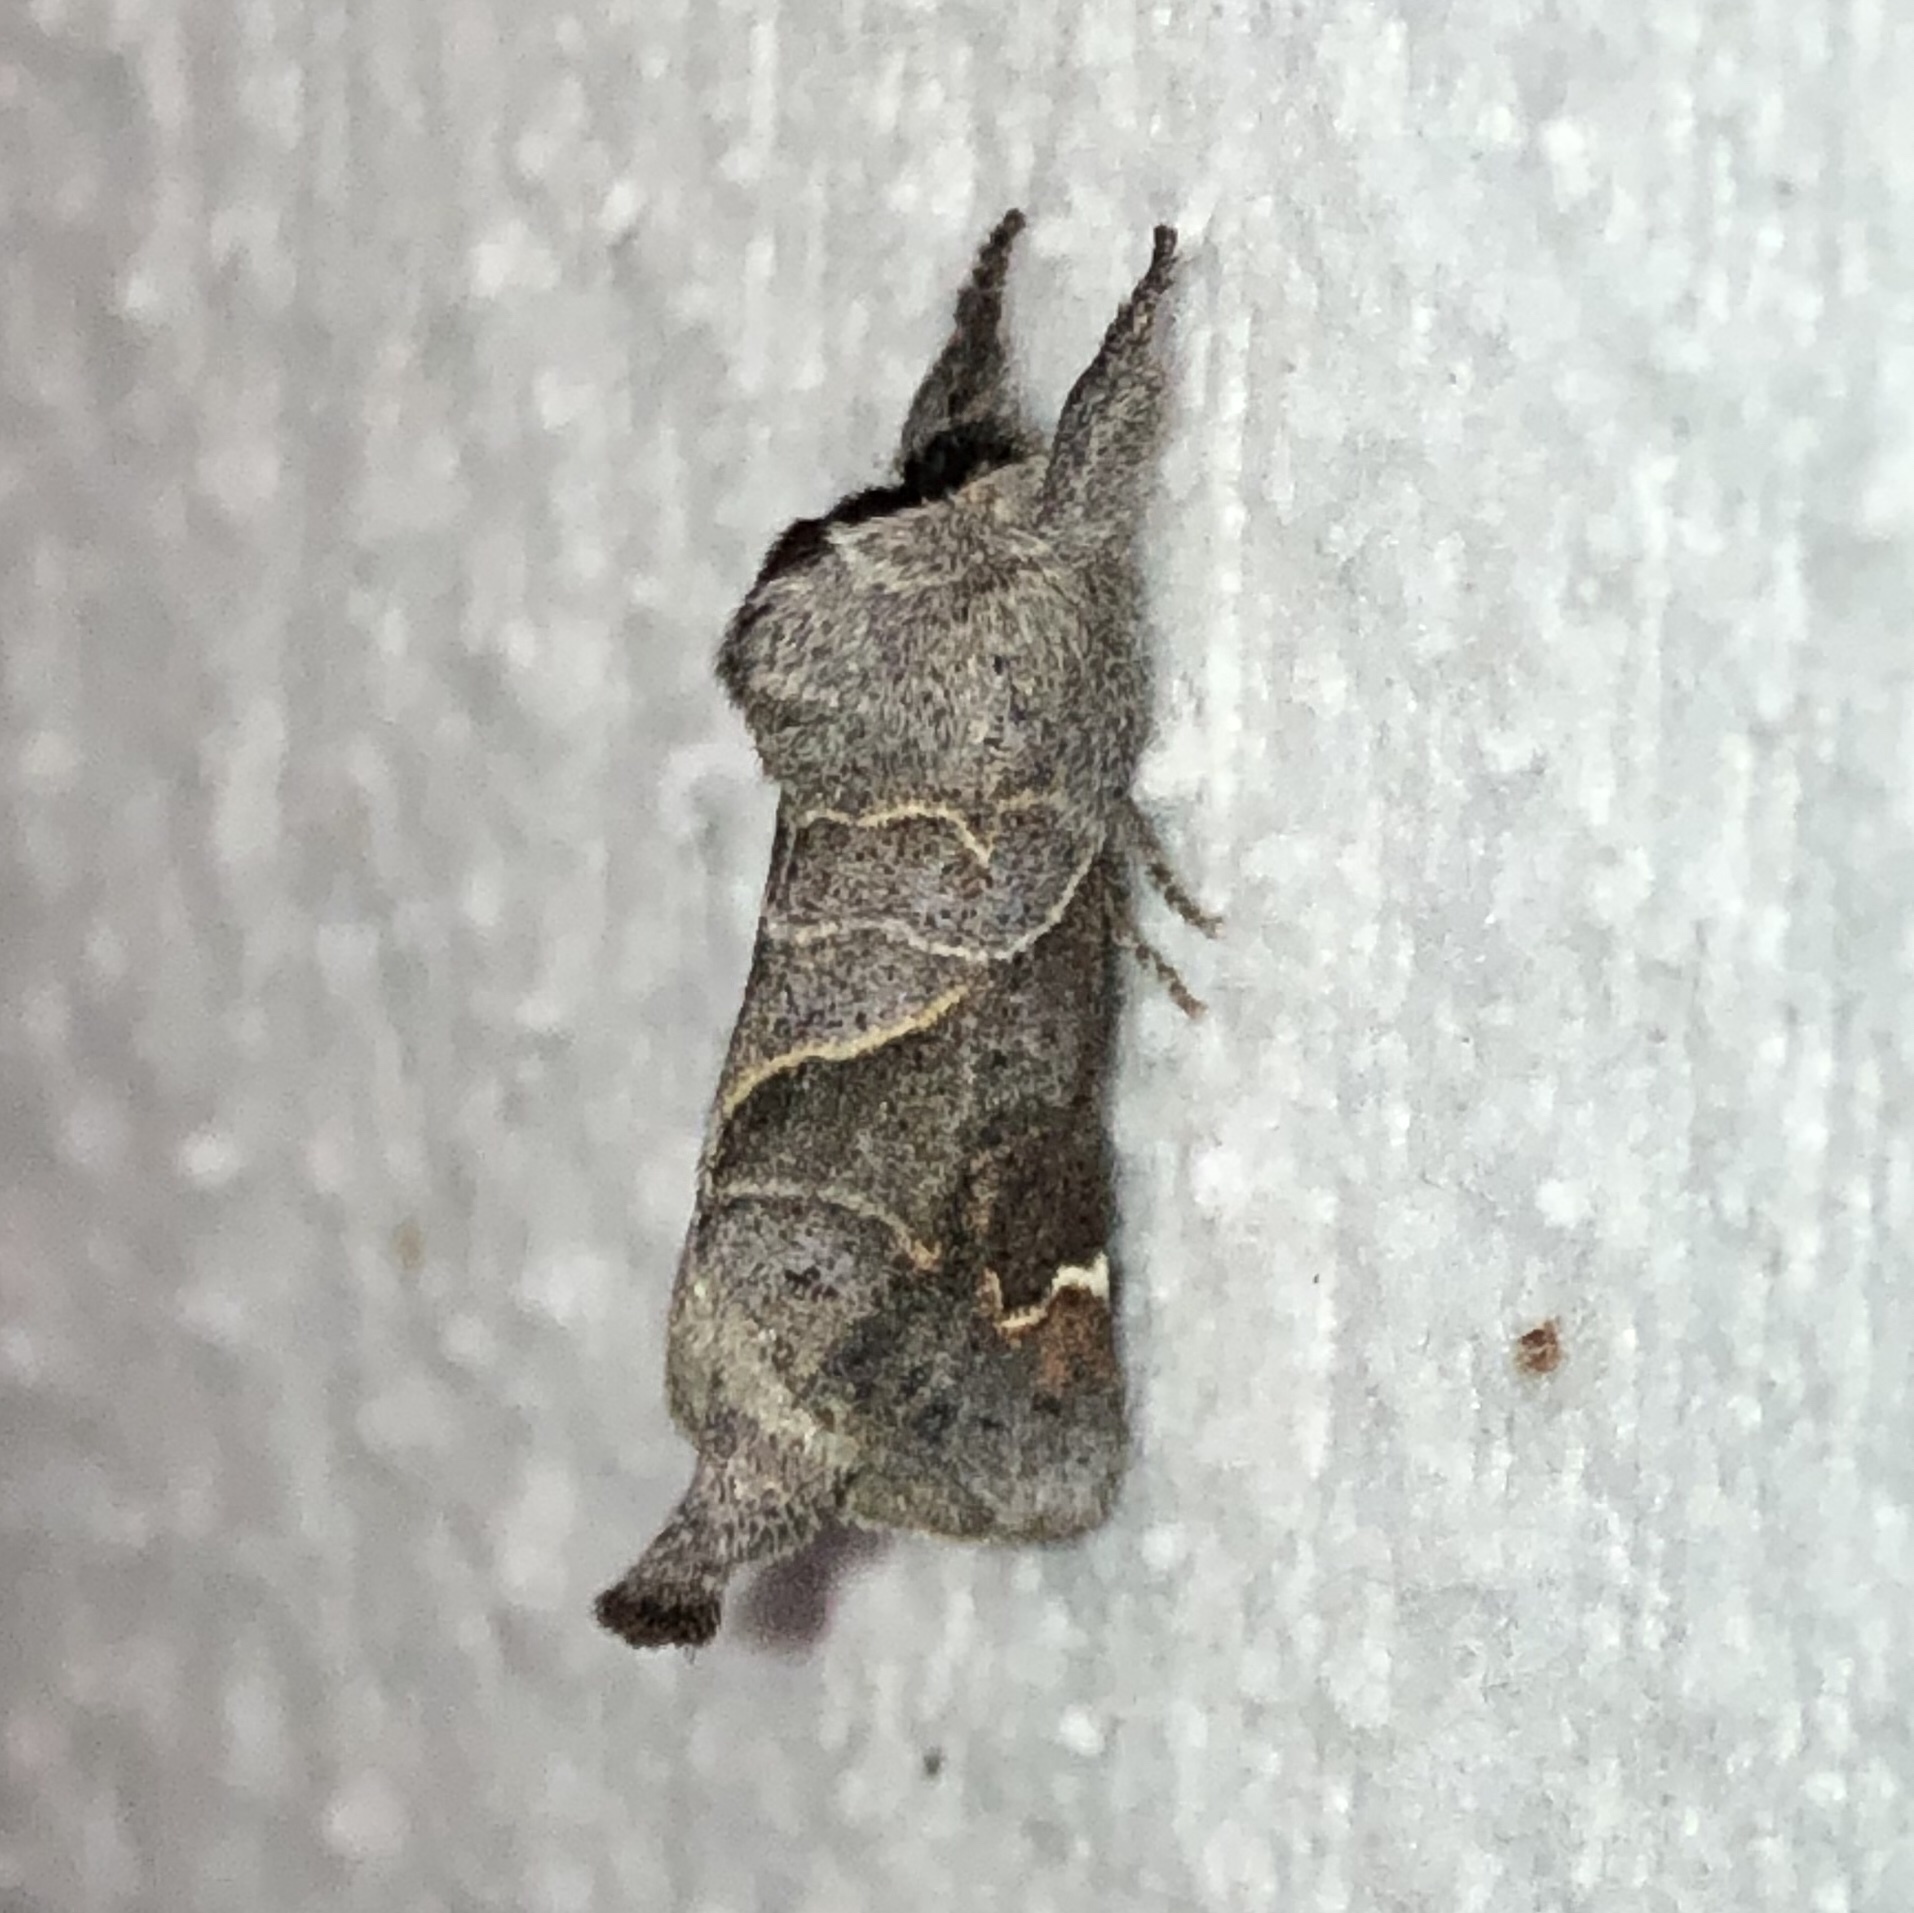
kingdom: Animalia
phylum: Arthropoda
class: Insecta
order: Lepidoptera
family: Notodontidae
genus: Clostera
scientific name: Clostera apicalis
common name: Apical prominent
